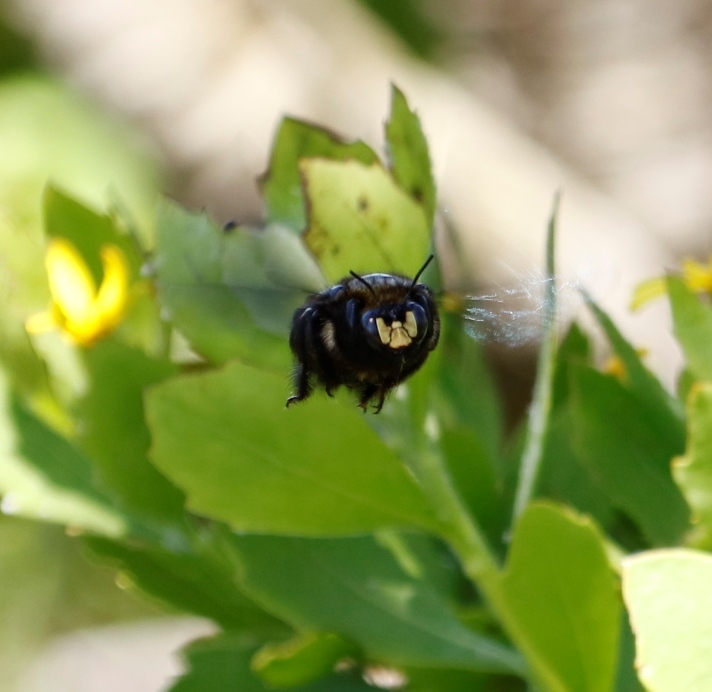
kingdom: Plantae
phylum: Tracheophyta
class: Magnoliopsida
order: Asterales
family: Asteraceae
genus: Osteospermum
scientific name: Osteospermum moniliferum
